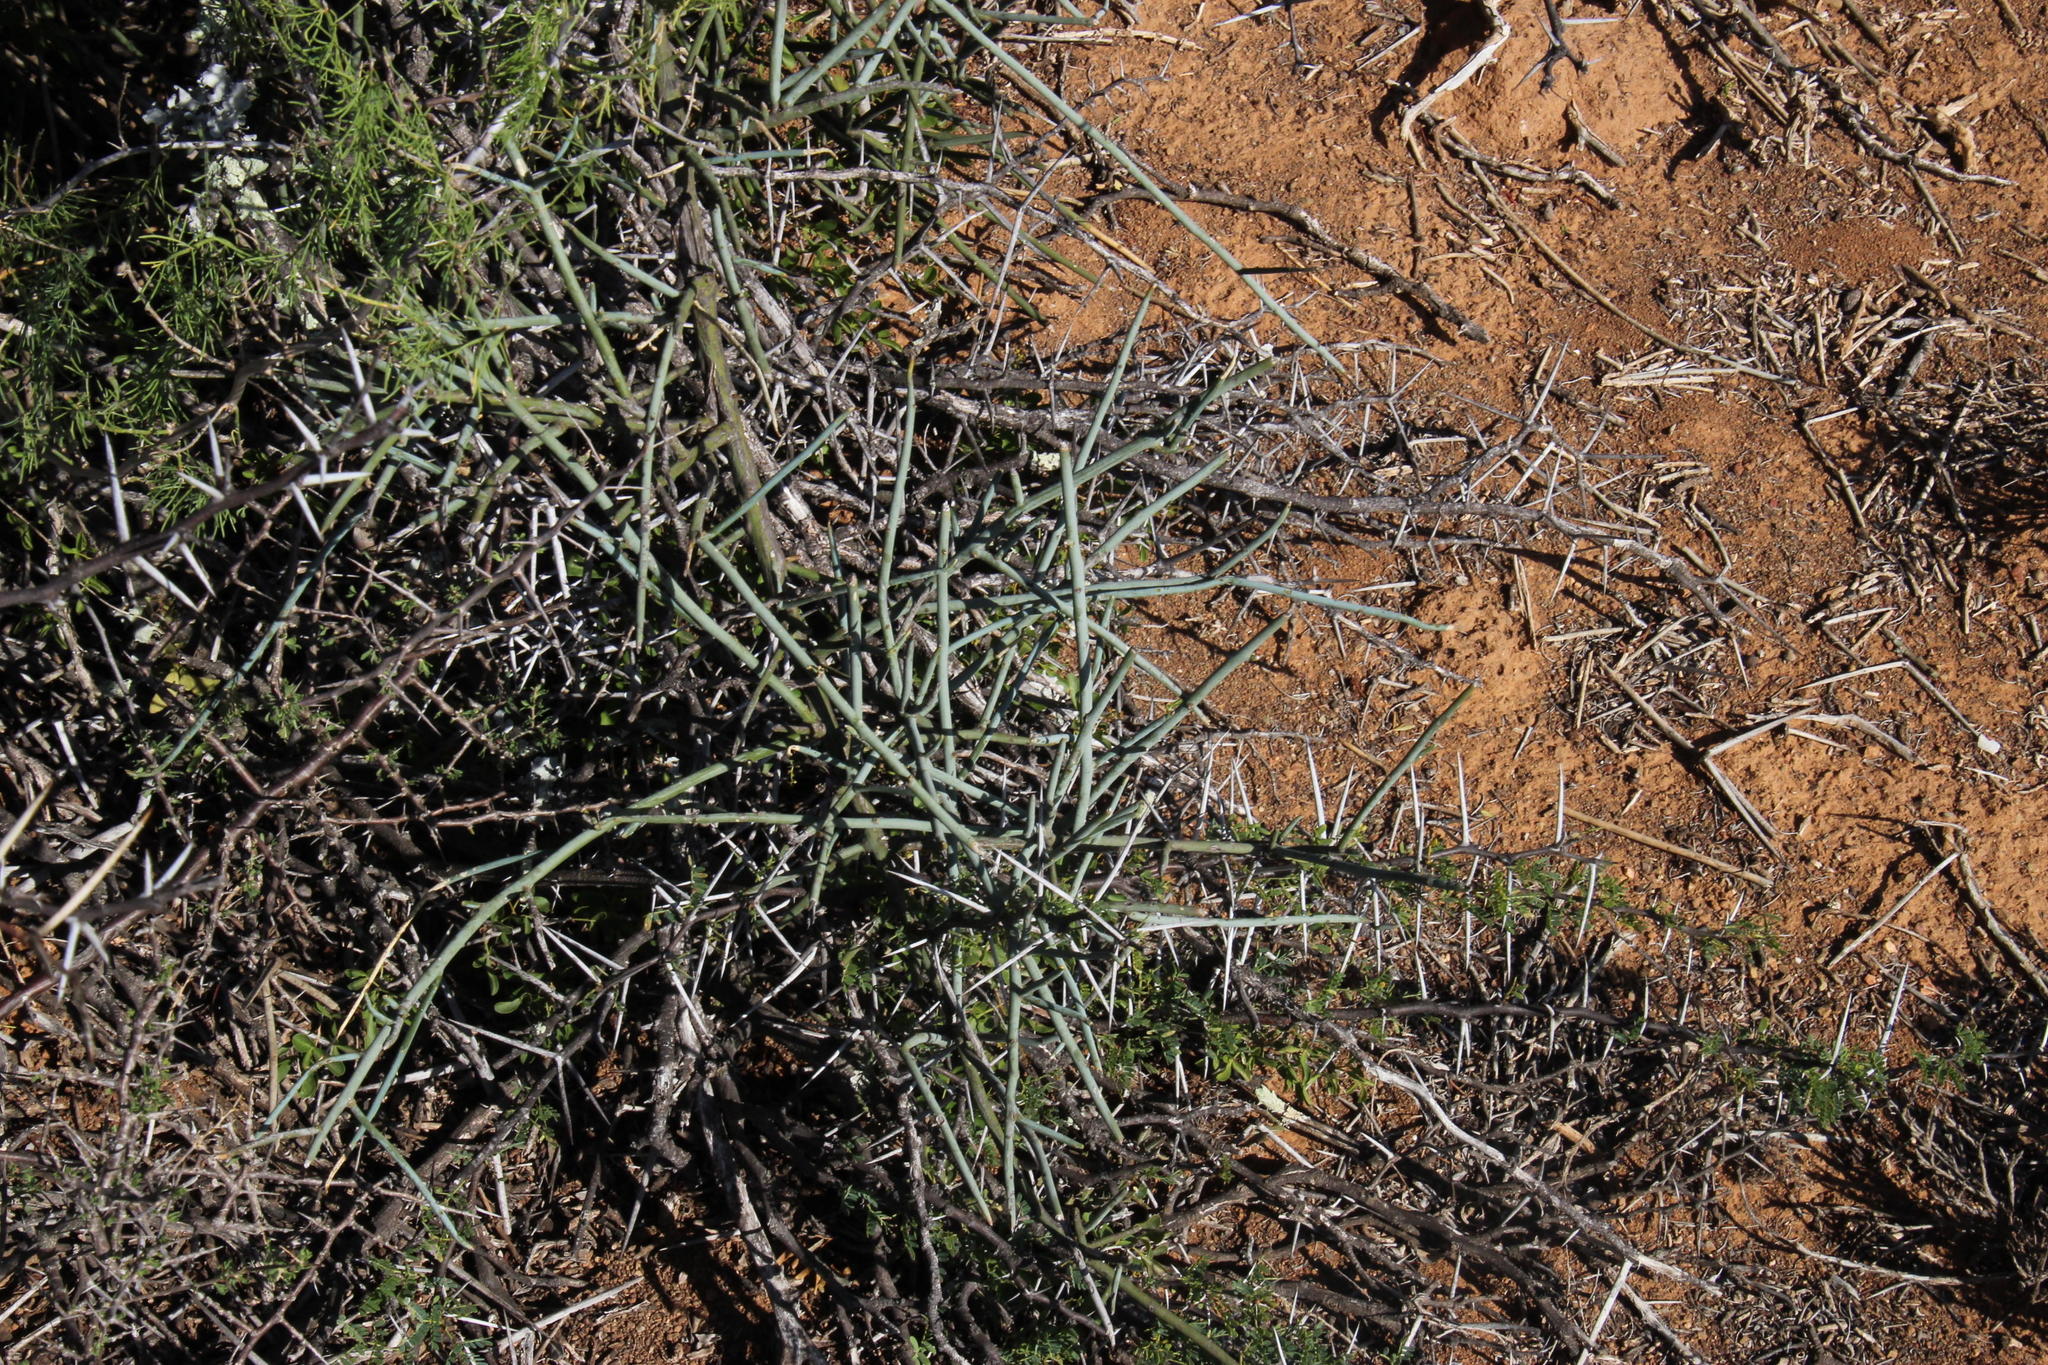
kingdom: Plantae
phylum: Tracheophyta
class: Magnoliopsida
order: Brassicales
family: Capparaceae
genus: Cadaba
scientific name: Cadaba aphylla
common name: Black storm
